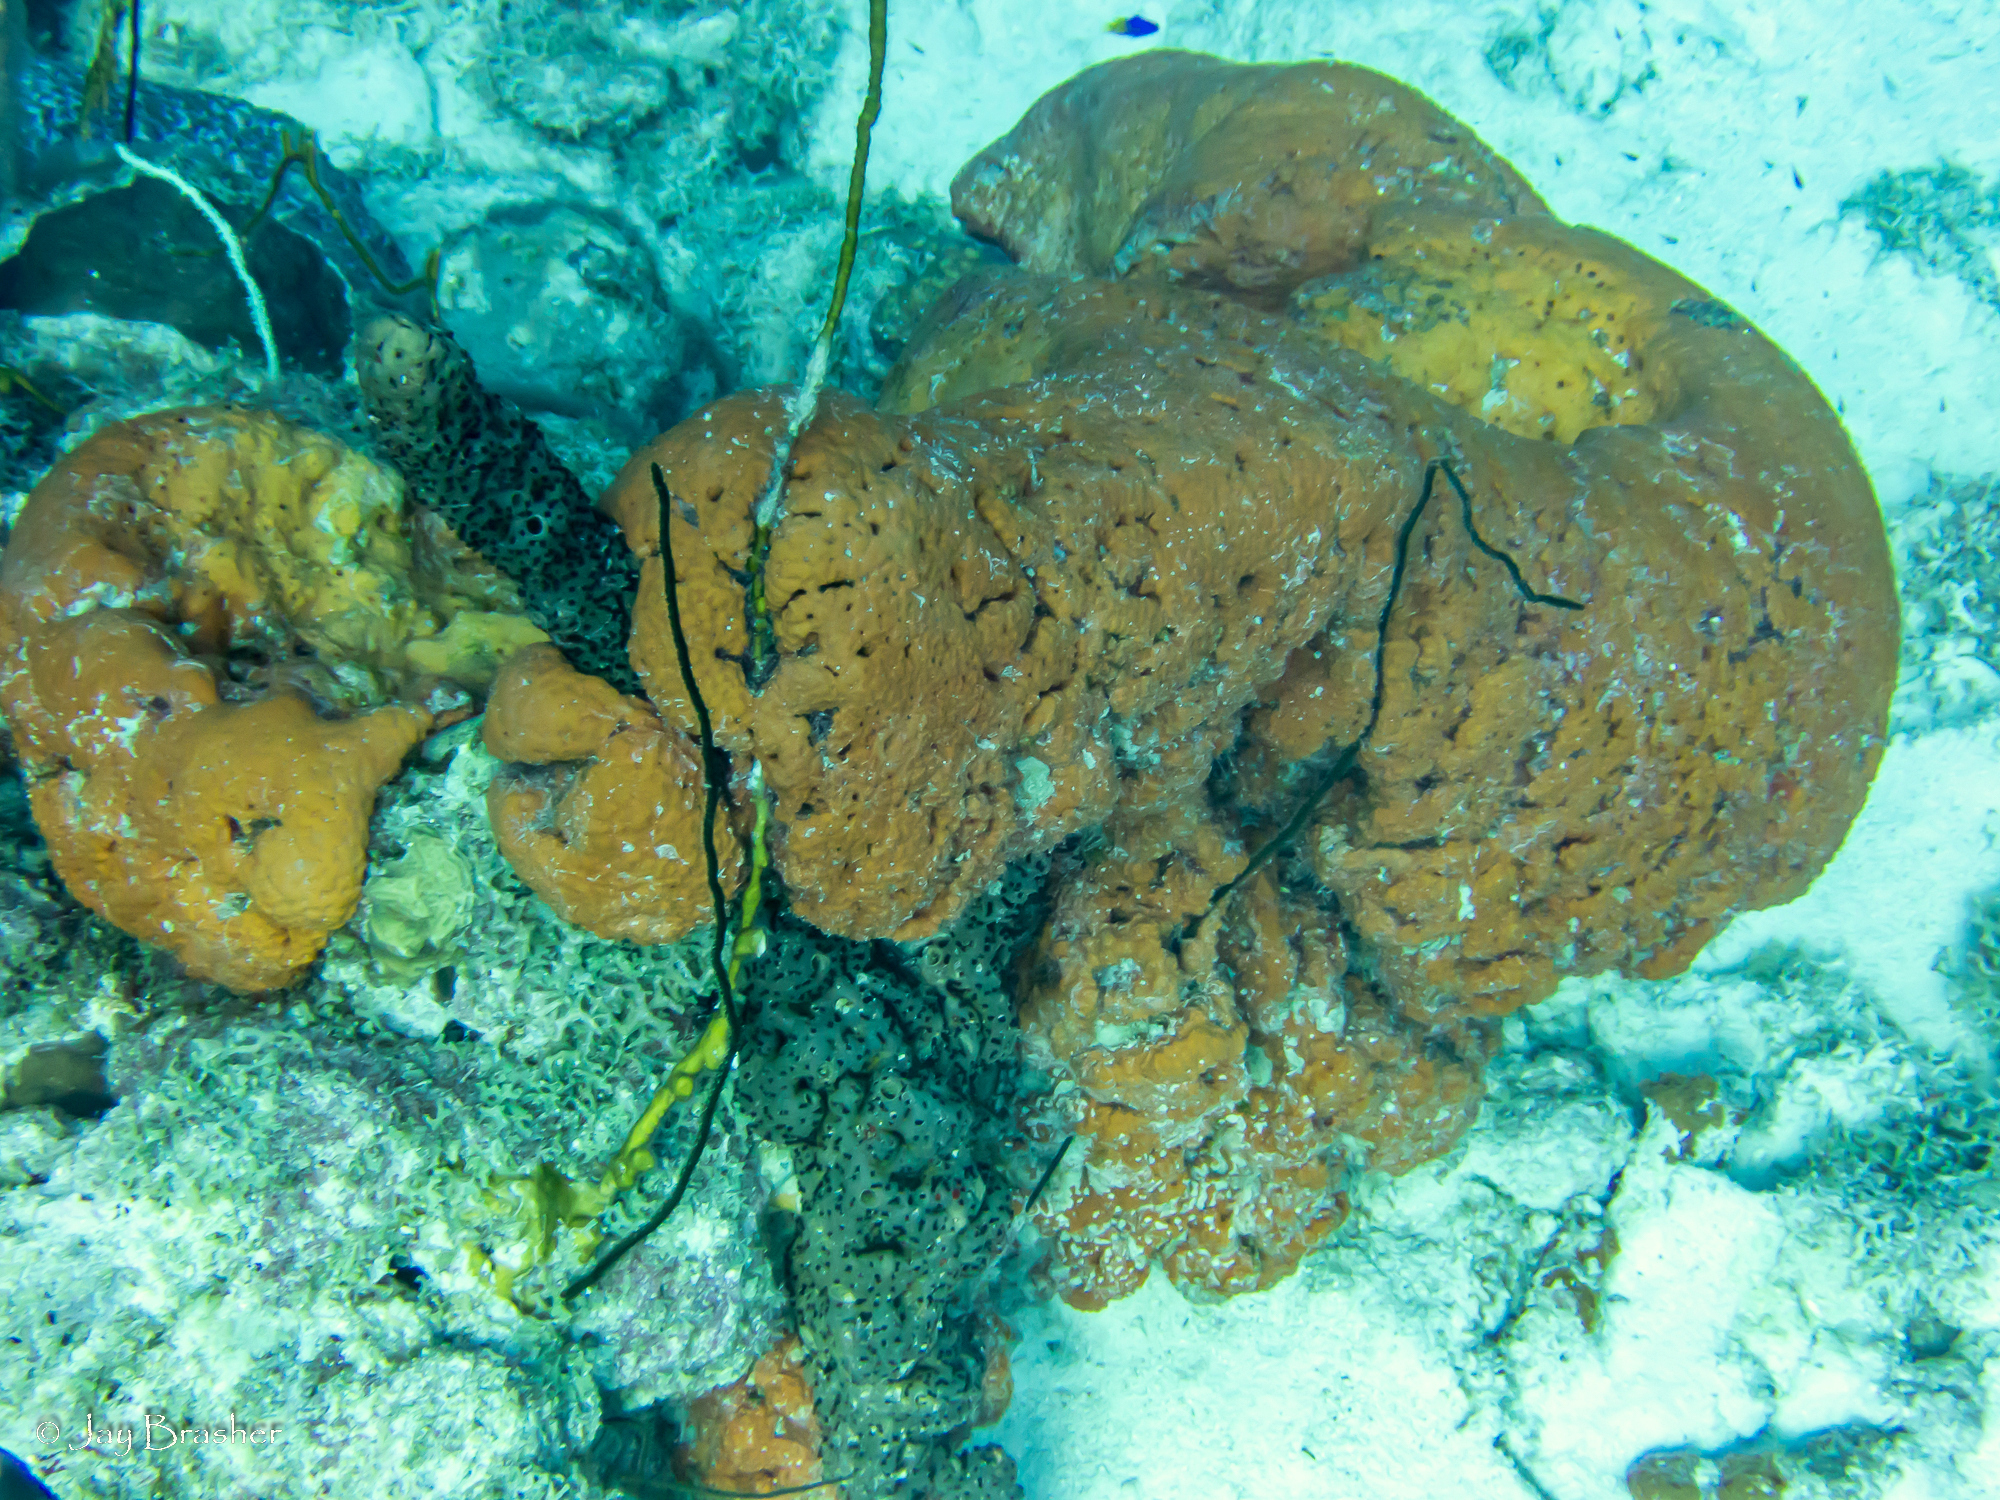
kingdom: Animalia
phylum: Porifera
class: Demospongiae
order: Agelasida
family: Agelasidae
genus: Agelas
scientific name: Agelas clathrodes
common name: Orange elephant ear sponge
